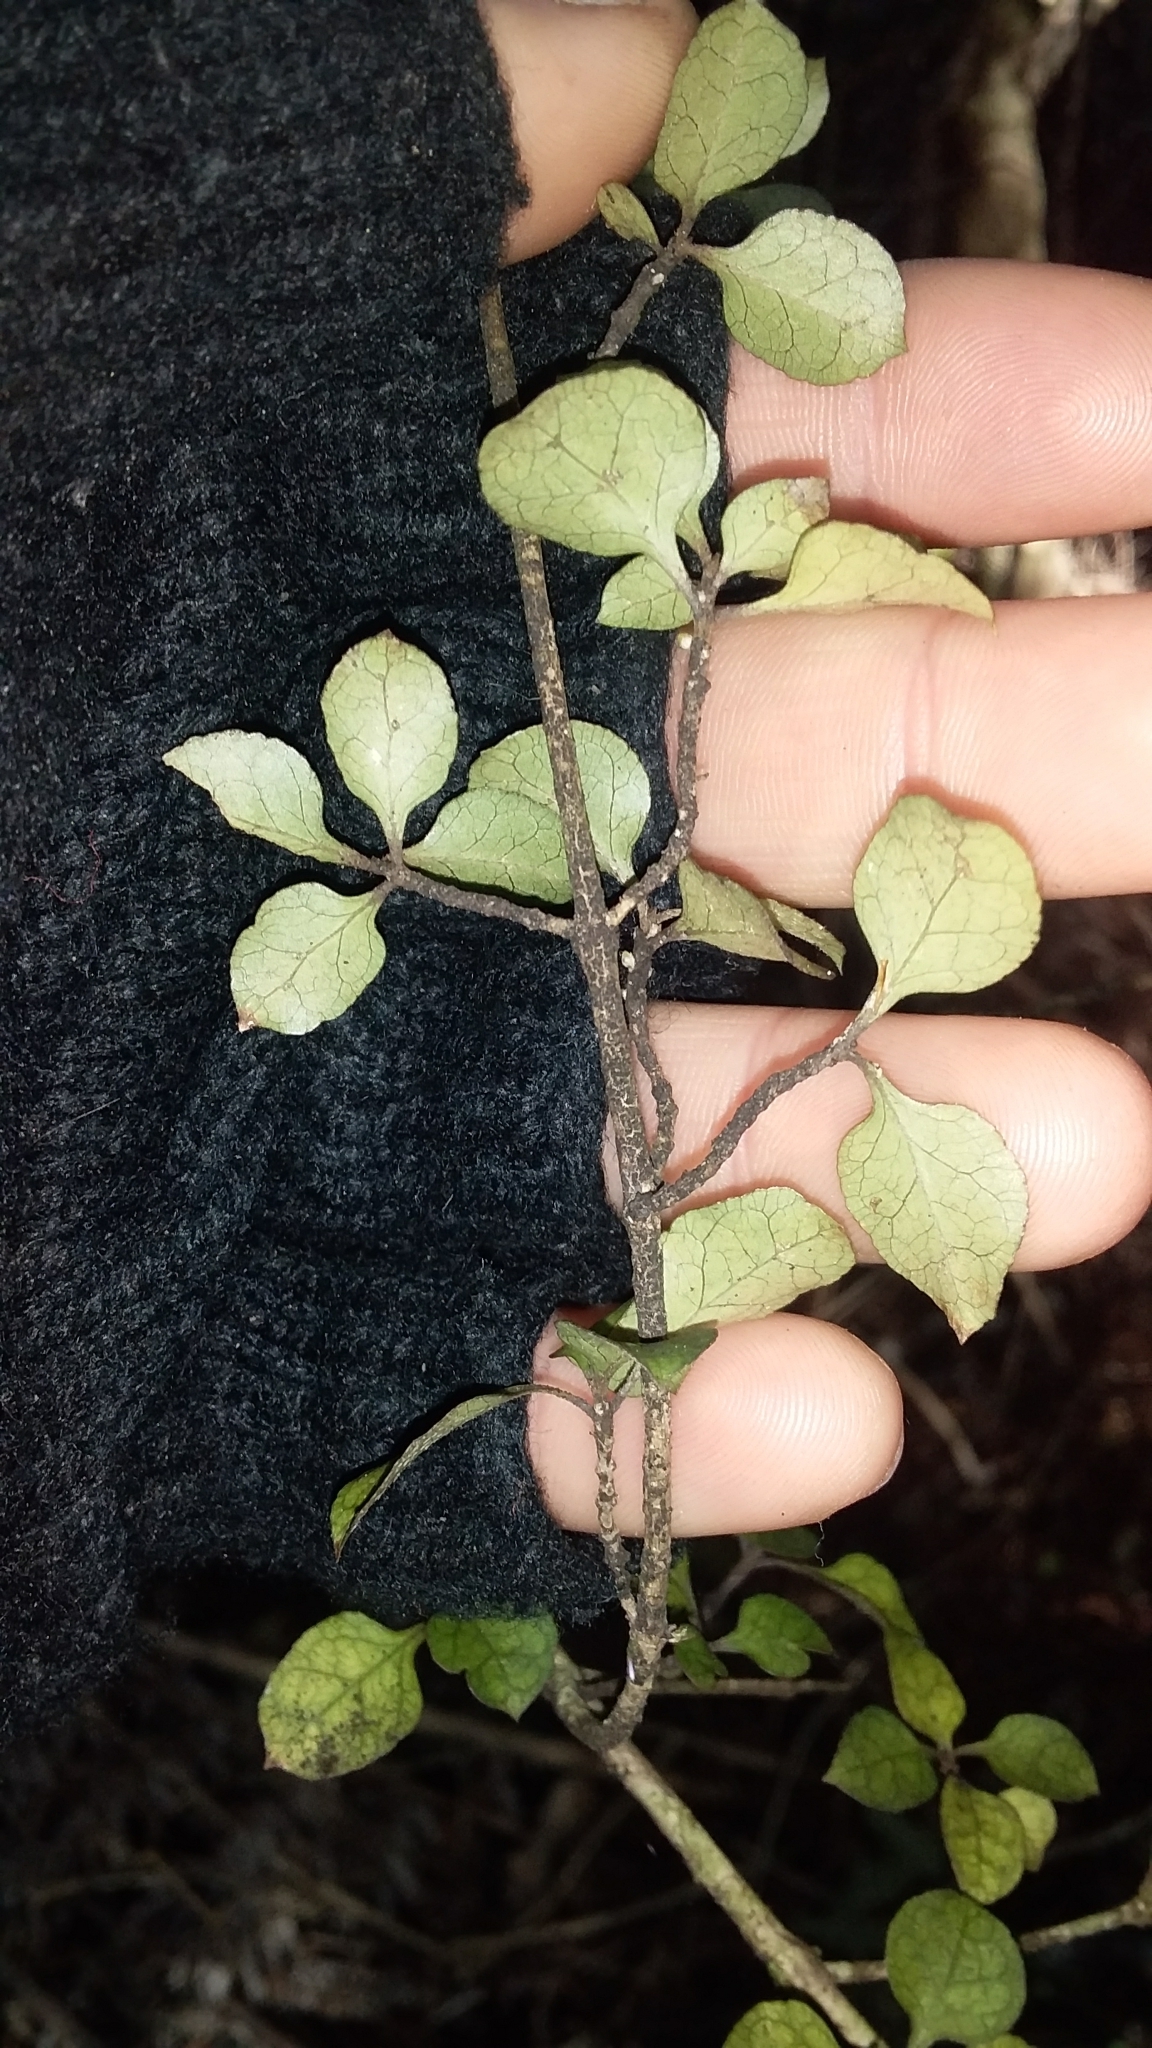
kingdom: Plantae
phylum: Tracheophyta
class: Magnoliopsida
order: Gentianales
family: Rubiaceae
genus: Coprosma
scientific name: Coprosma areolata
